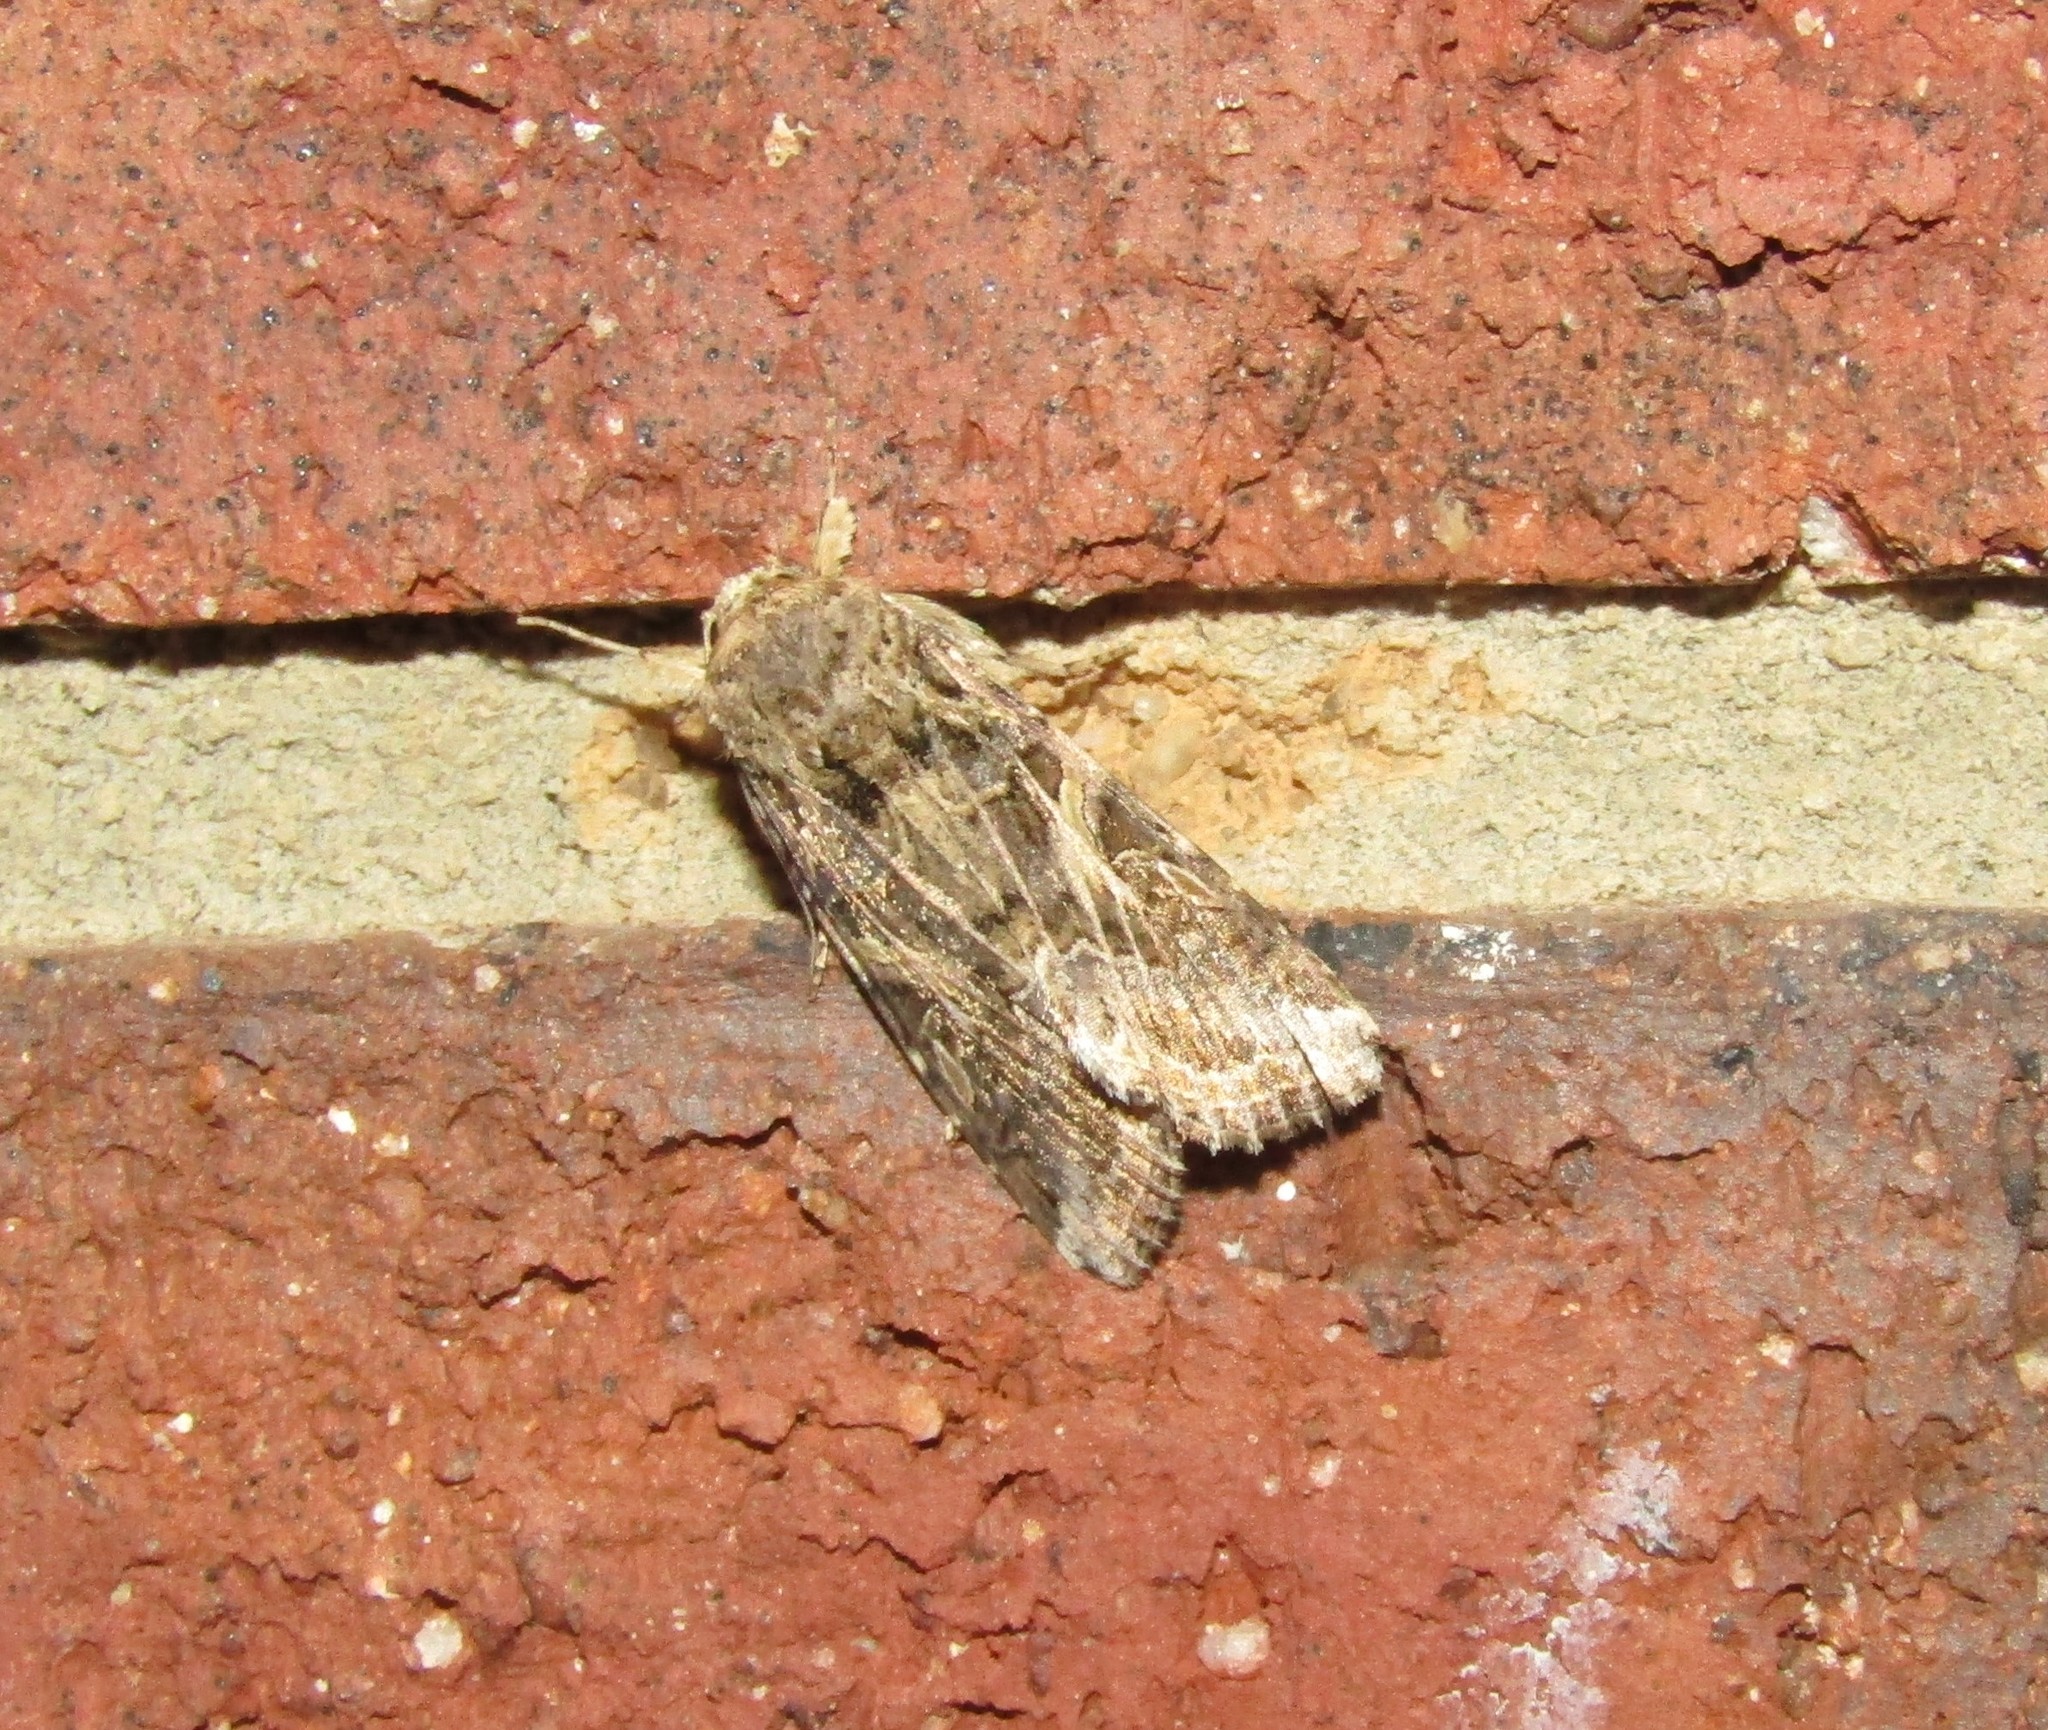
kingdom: Animalia
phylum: Arthropoda
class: Insecta
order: Lepidoptera
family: Noctuidae
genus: Spodoptera
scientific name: Spodoptera ornithogalli
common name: Yellow-striped armyworm
